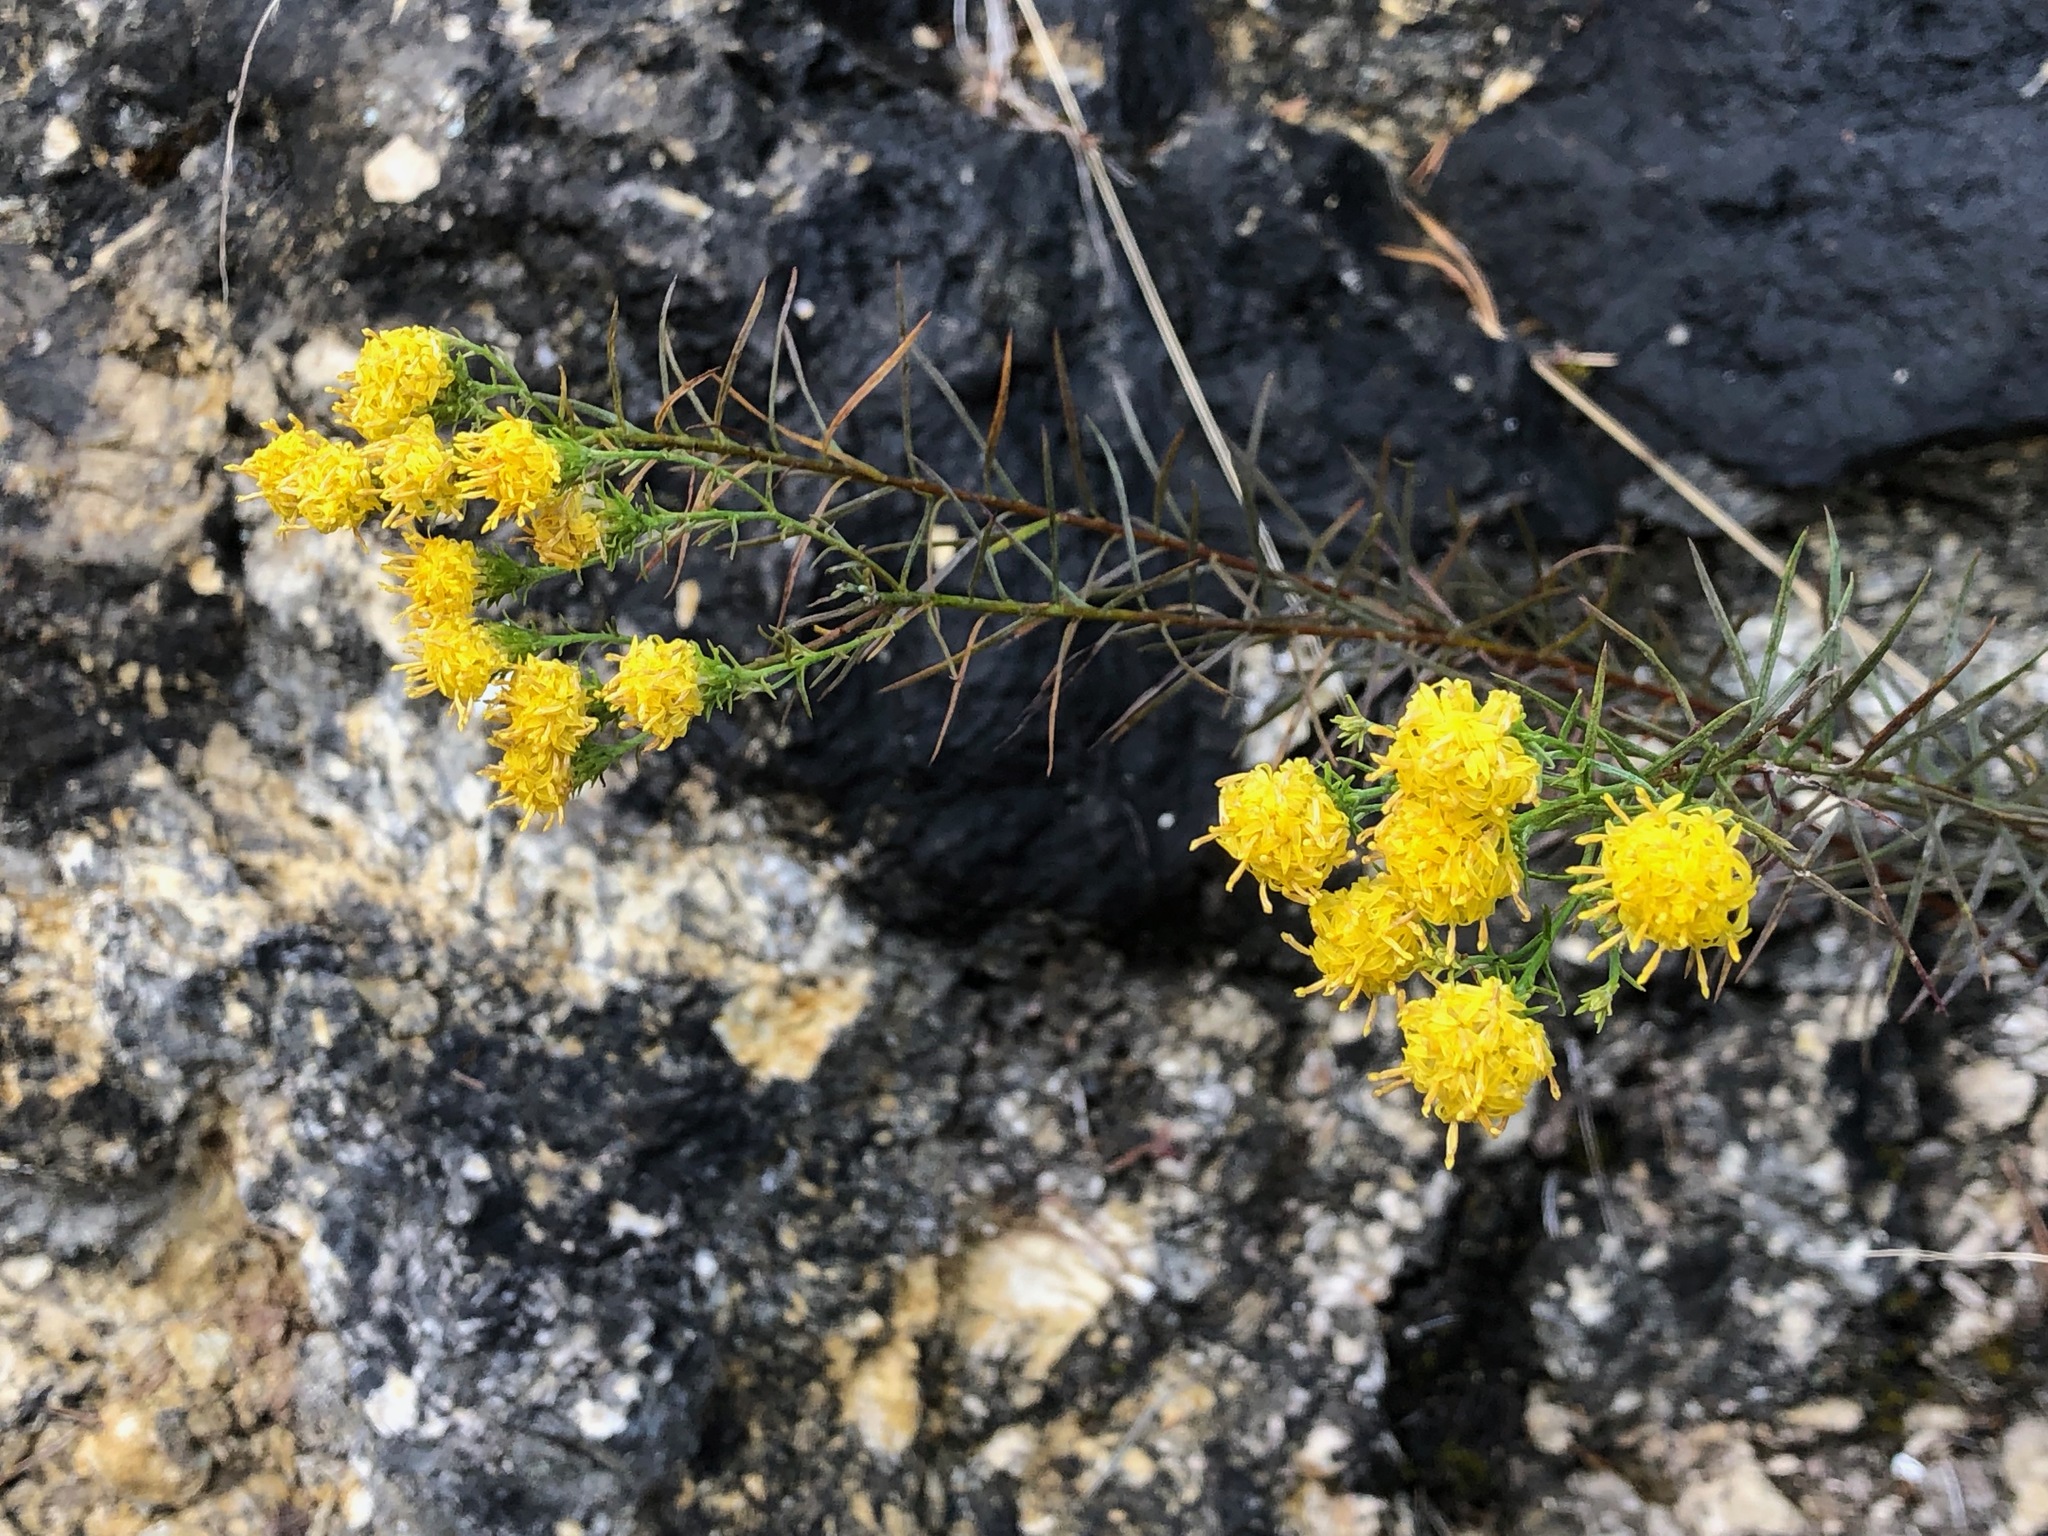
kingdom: Plantae
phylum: Tracheophyta
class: Magnoliopsida
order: Asterales
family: Asteraceae
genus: Galatella
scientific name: Galatella linosyris
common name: Goldilocks aster
